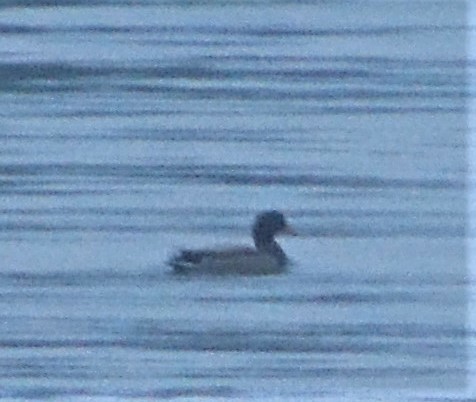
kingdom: Animalia
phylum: Chordata
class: Aves
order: Anseriformes
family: Anatidae
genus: Anas
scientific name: Anas platyrhynchos
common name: Mallard
